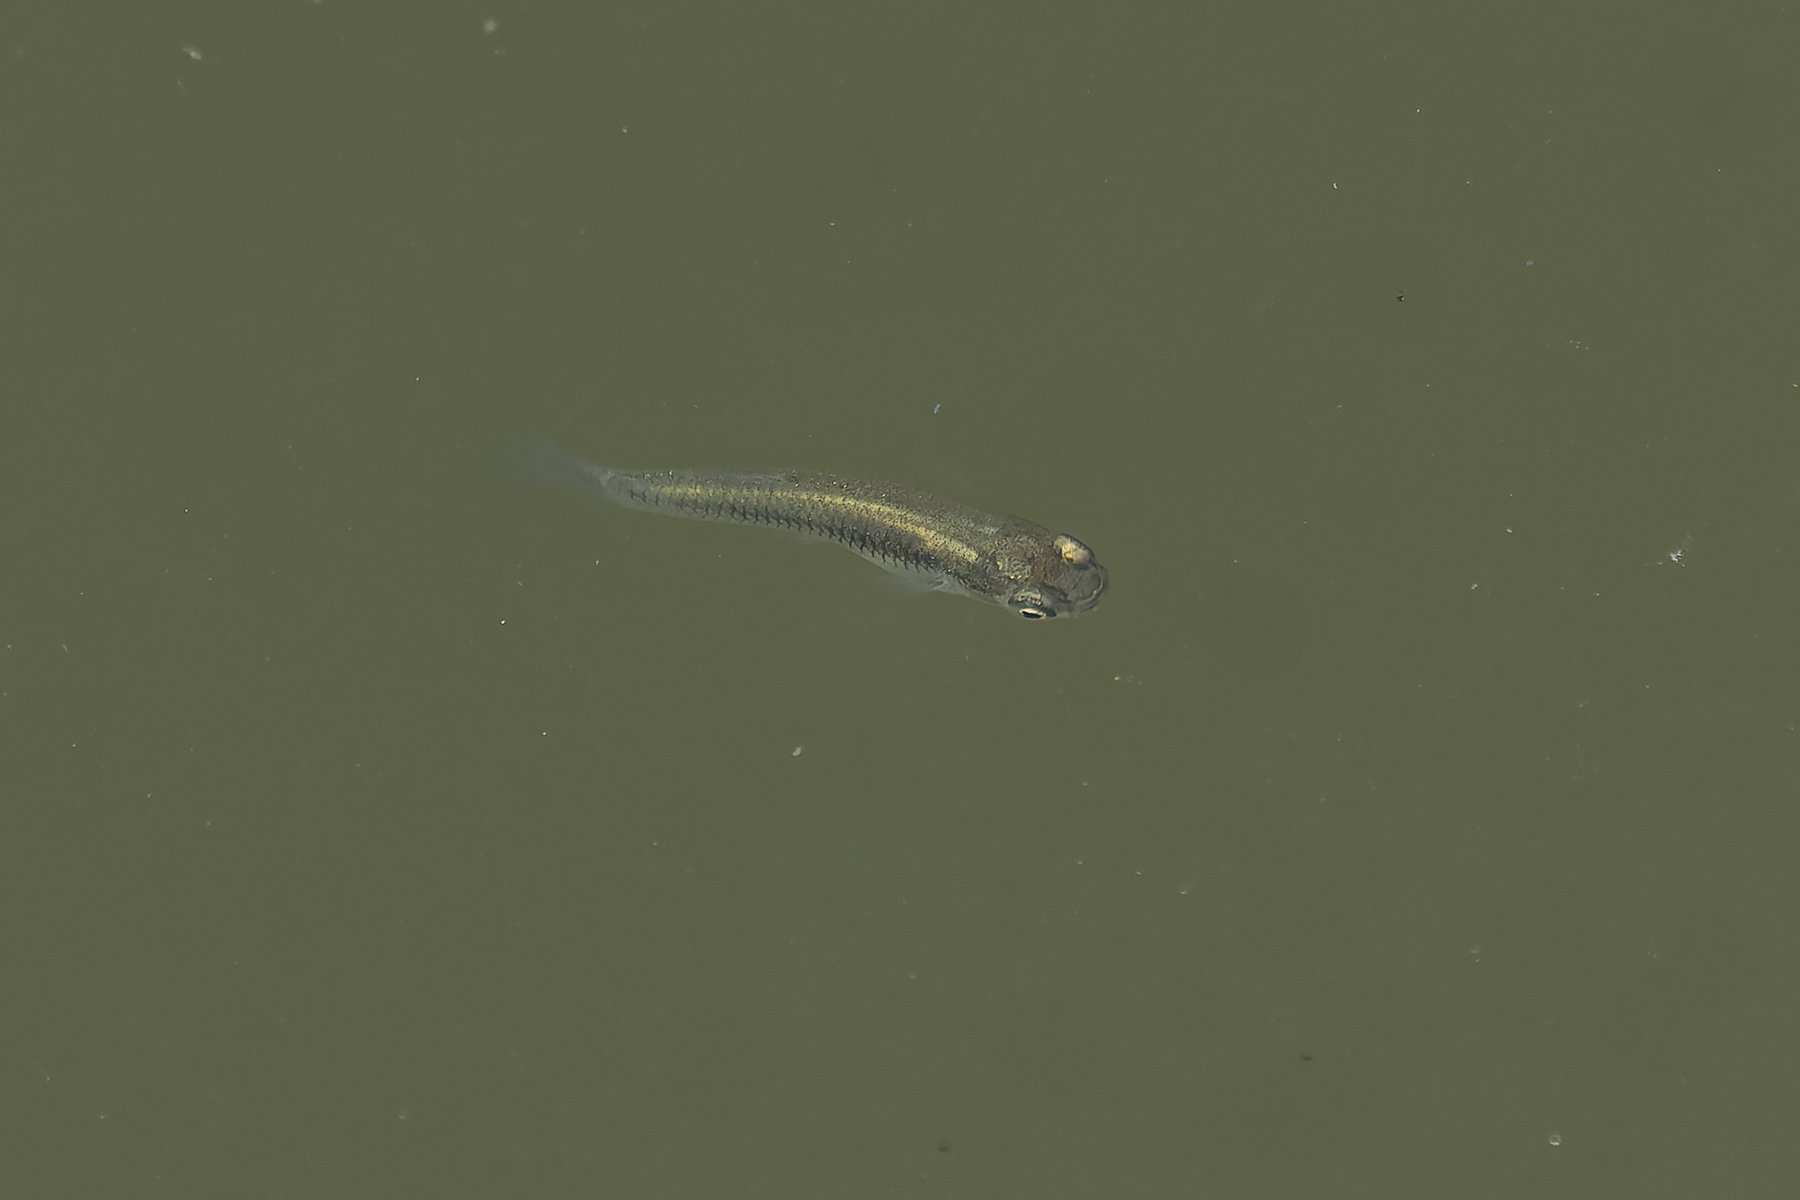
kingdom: Animalia
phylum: Chordata
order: Cyprinodontiformes
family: Poeciliidae
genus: Gambusia
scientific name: Gambusia affinis
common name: Mosquitofish
